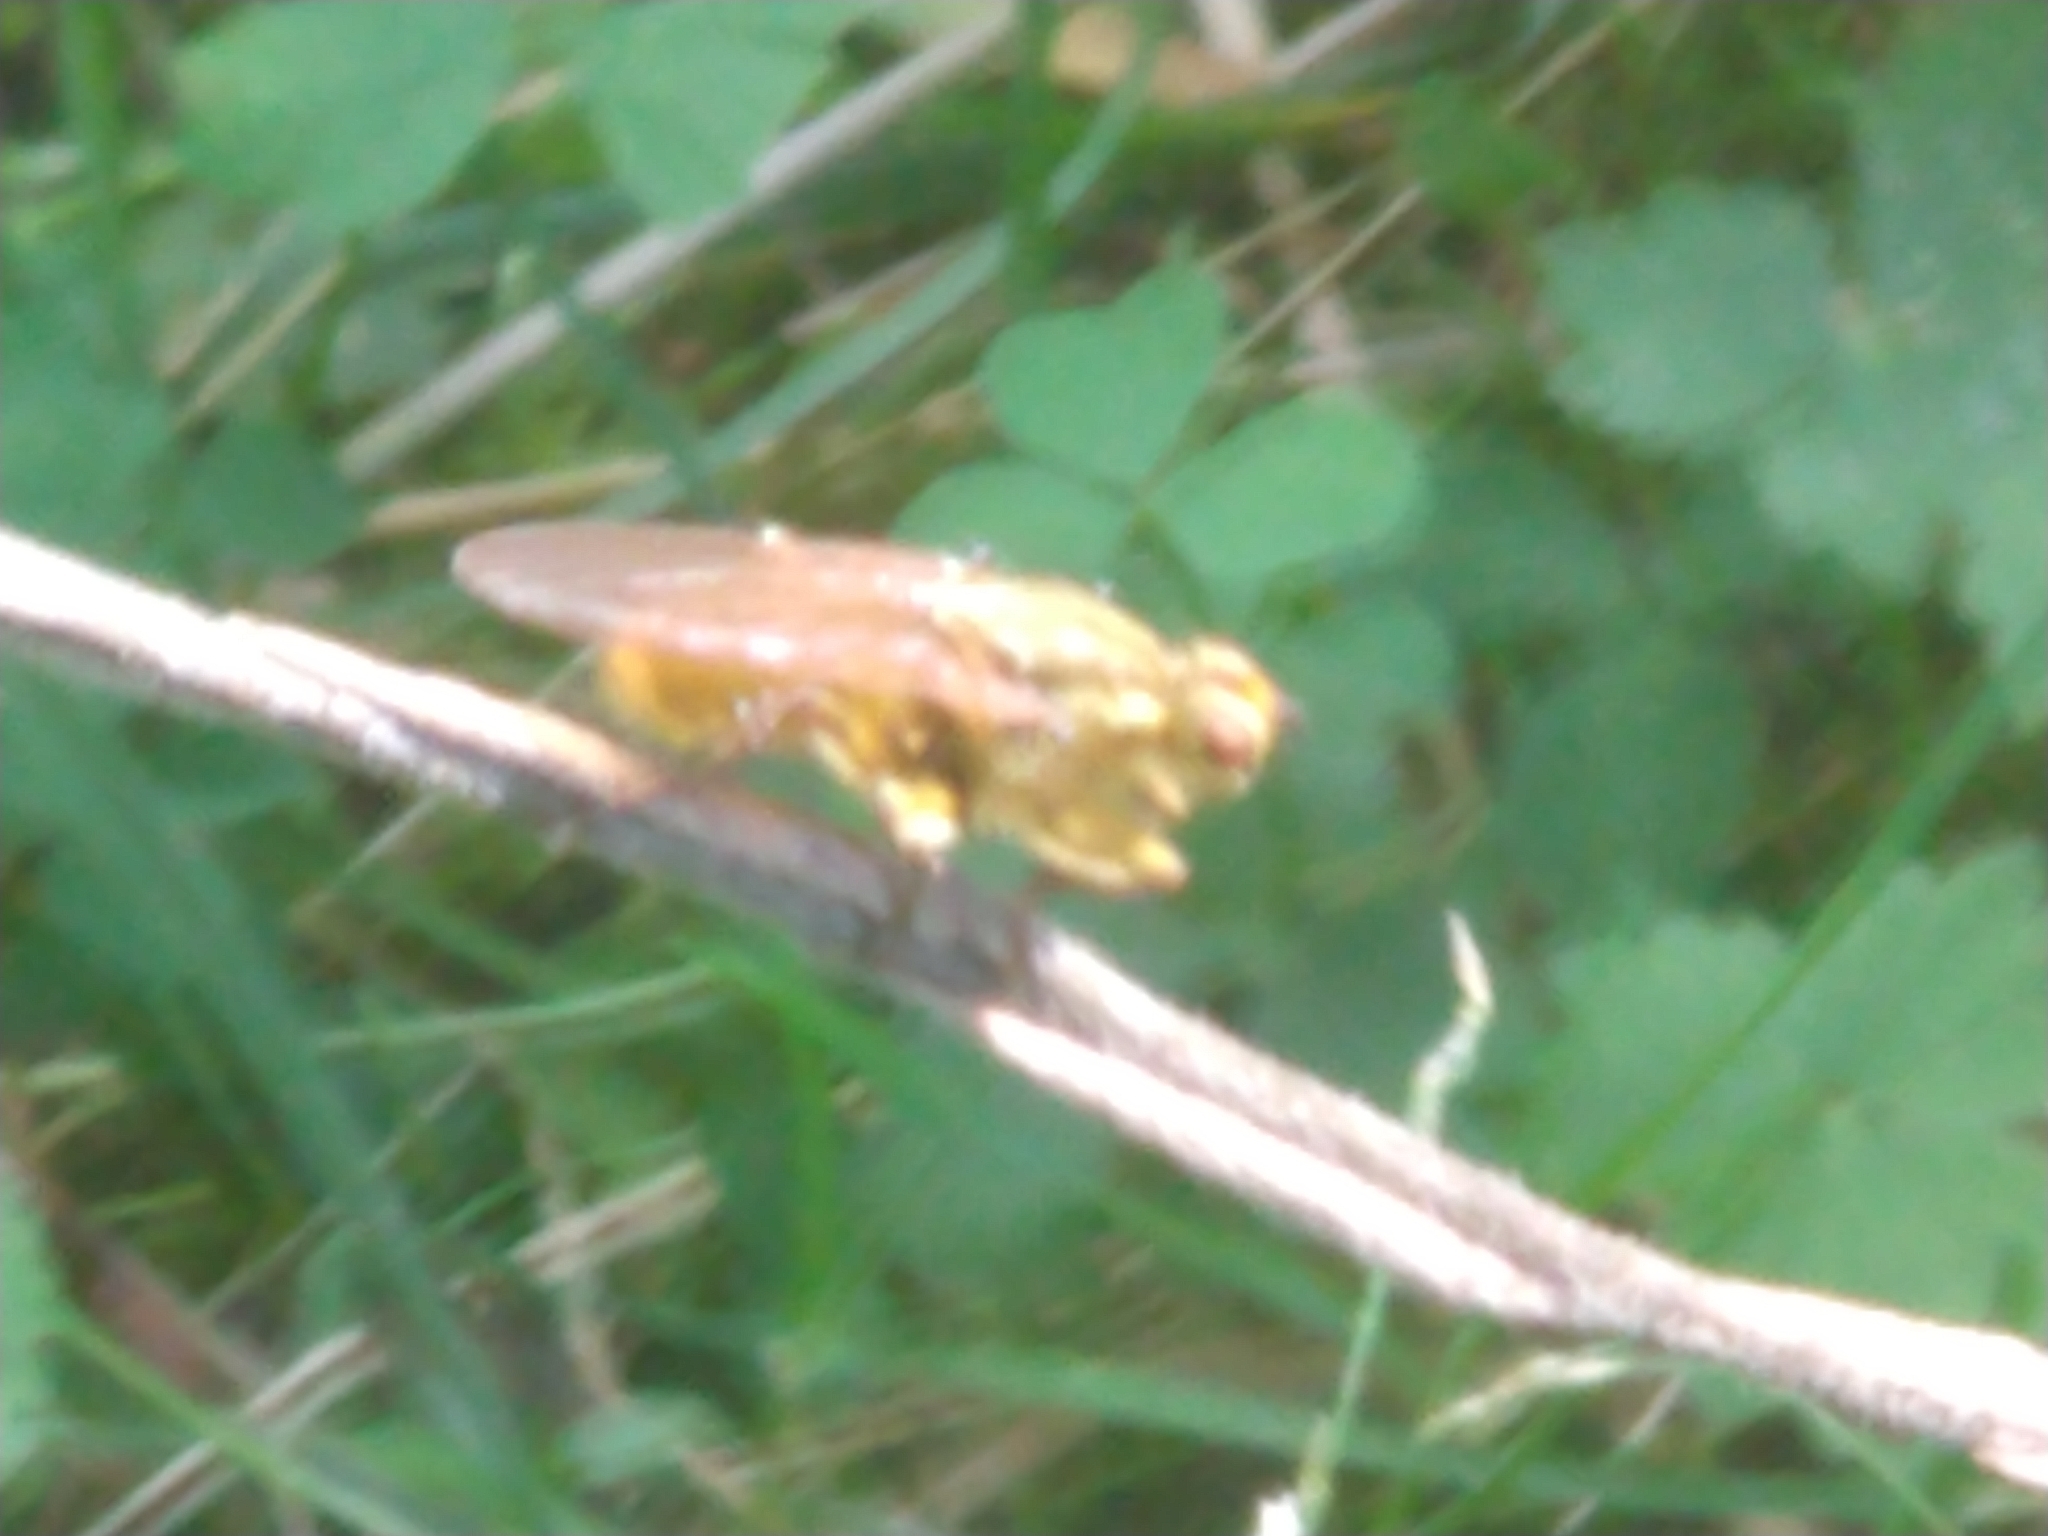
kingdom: Animalia
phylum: Arthropoda
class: Insecta
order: Diptera
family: Scathophagidae
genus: Scathophaga
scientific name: Scathophaga stercoraria
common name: Yellow dung fly
